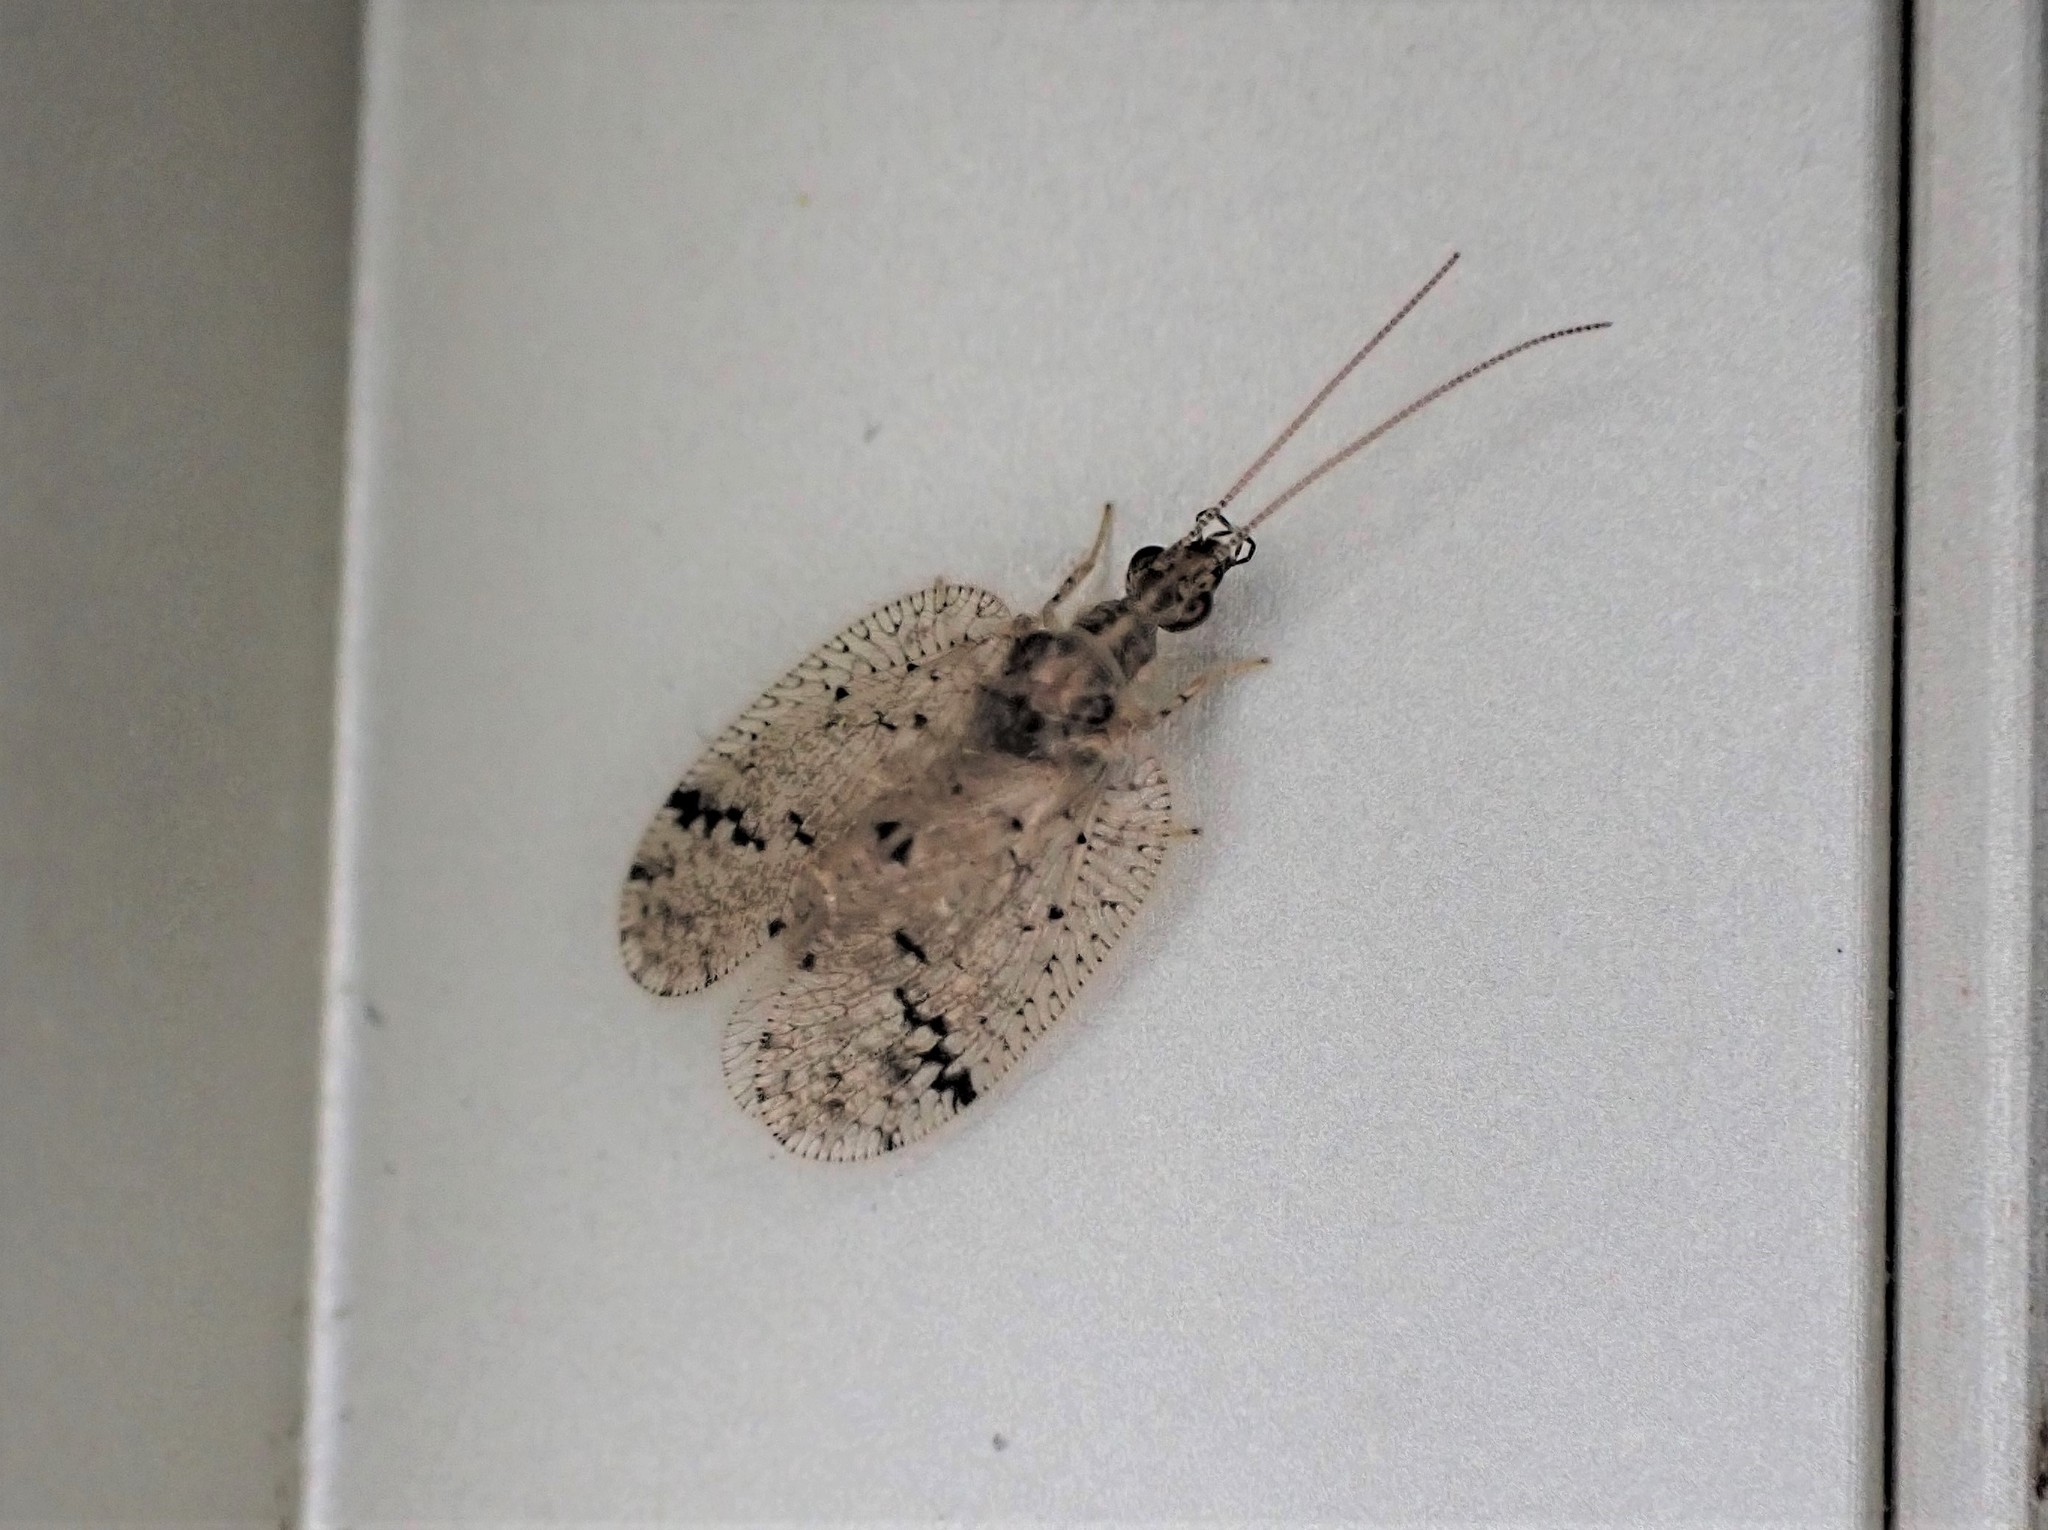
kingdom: Animalia
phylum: Arthropoda
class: Insecta
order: Neuroptera
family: Hemerobiidae
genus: Psectra
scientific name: Psectra nakaharai
